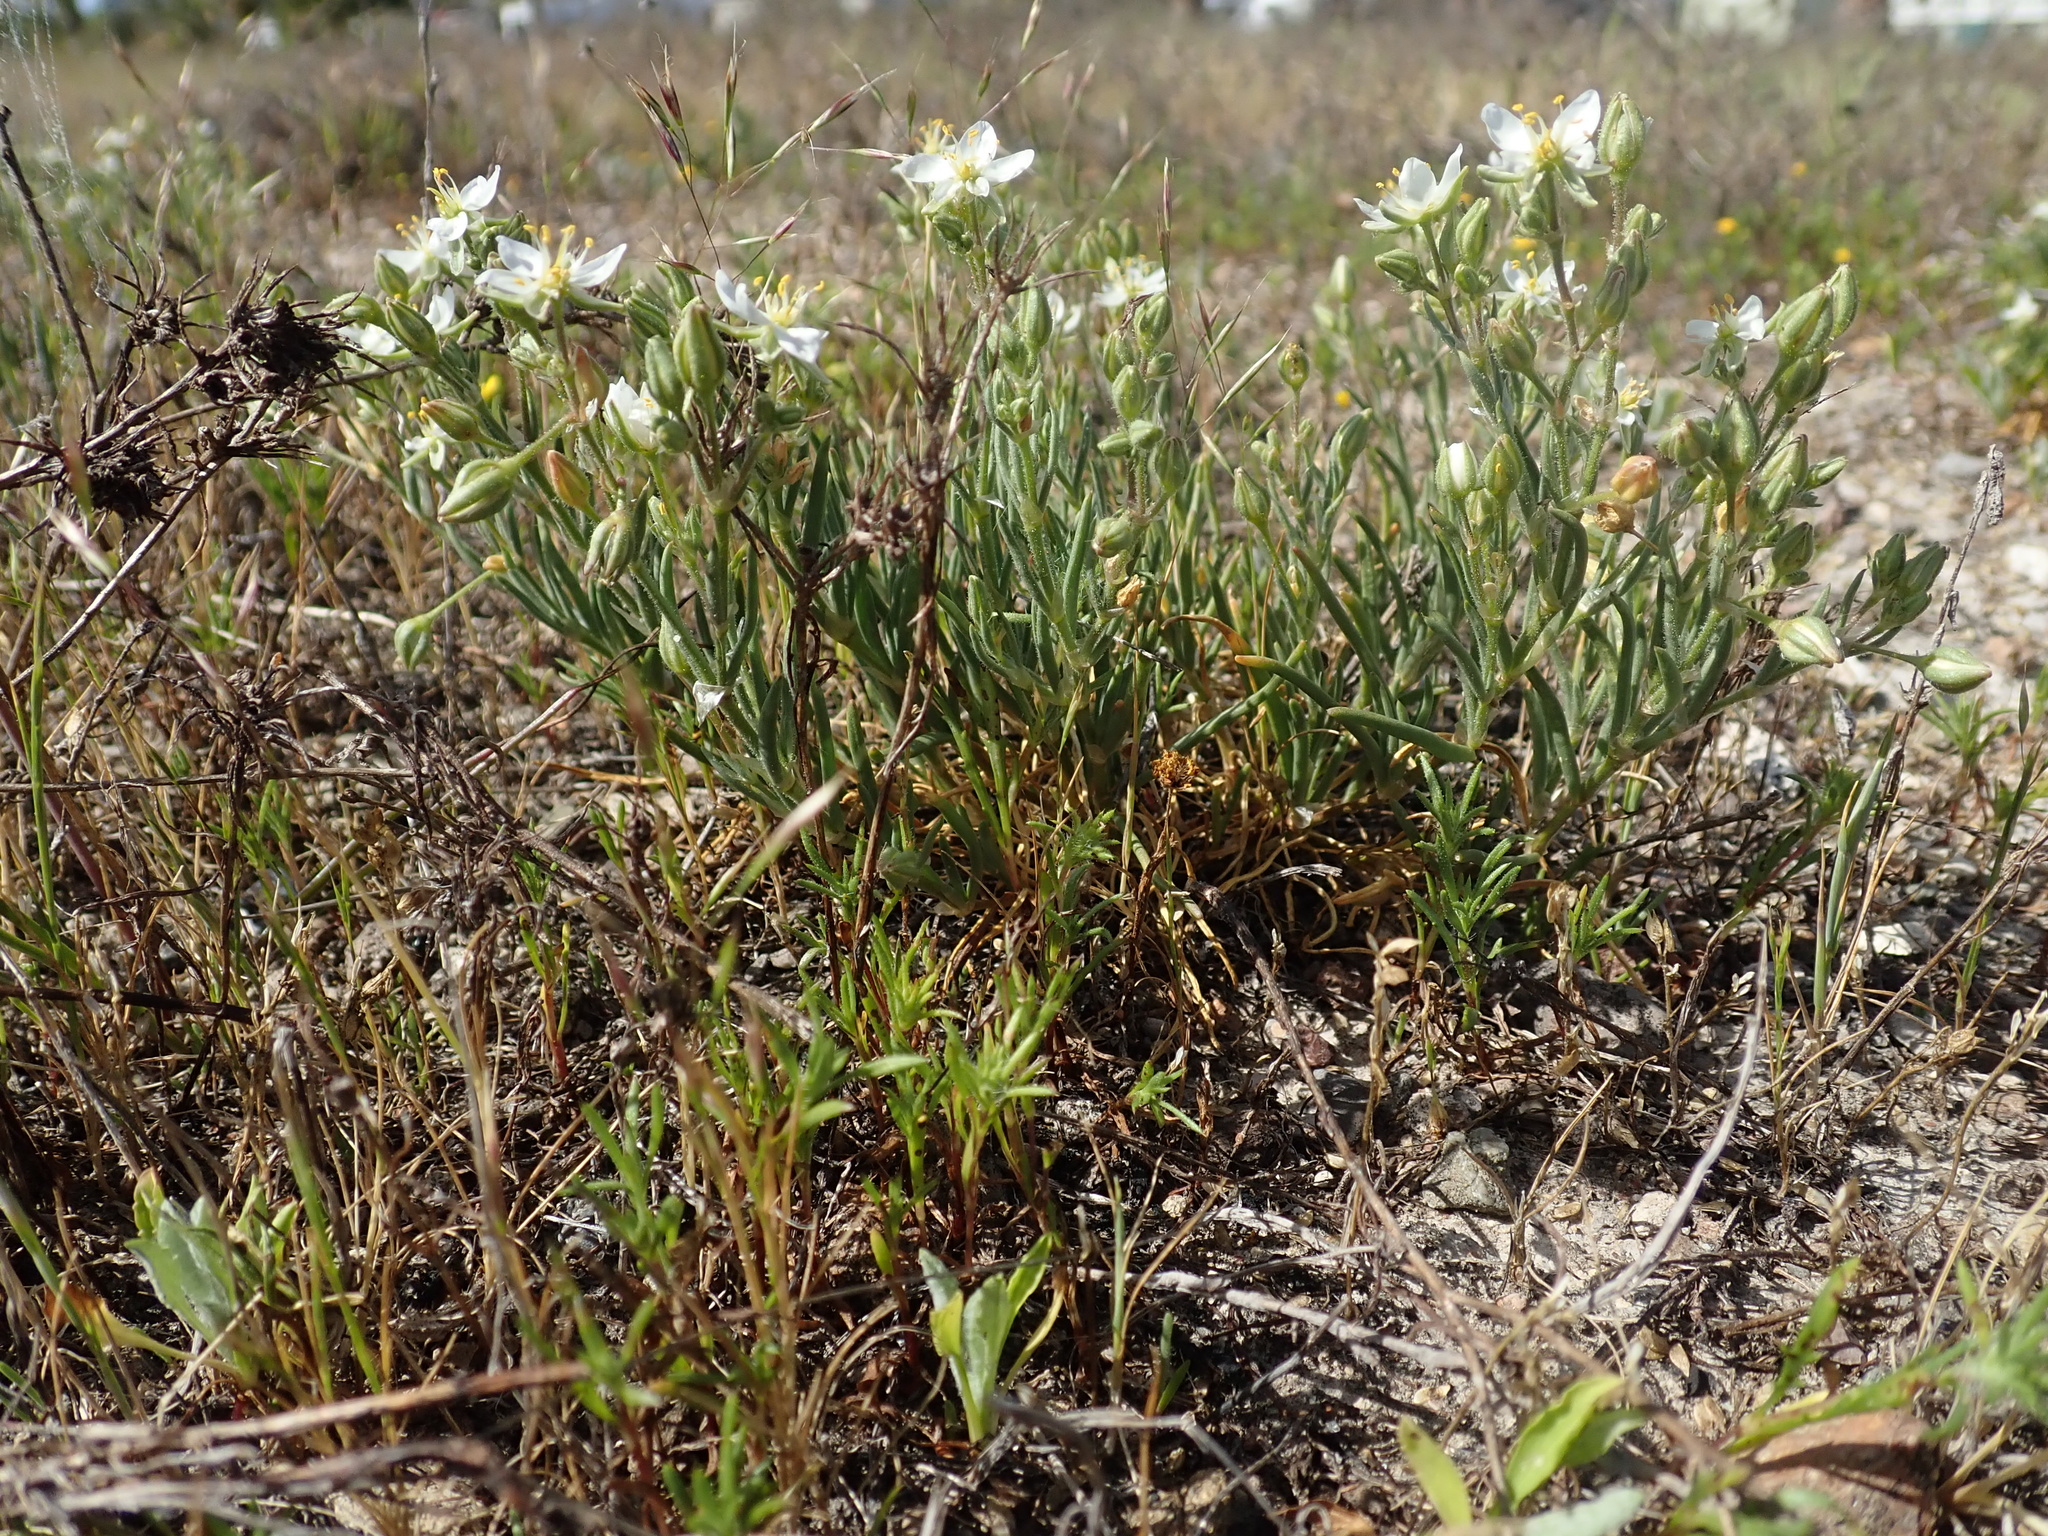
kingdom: Plantae
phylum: Tracheophyta
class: Magnoliopsida
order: Caryophyllales
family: Caryophyllaceae
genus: Spergularia
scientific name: Spergularia macrotheca
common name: Beach sand-spurrey
